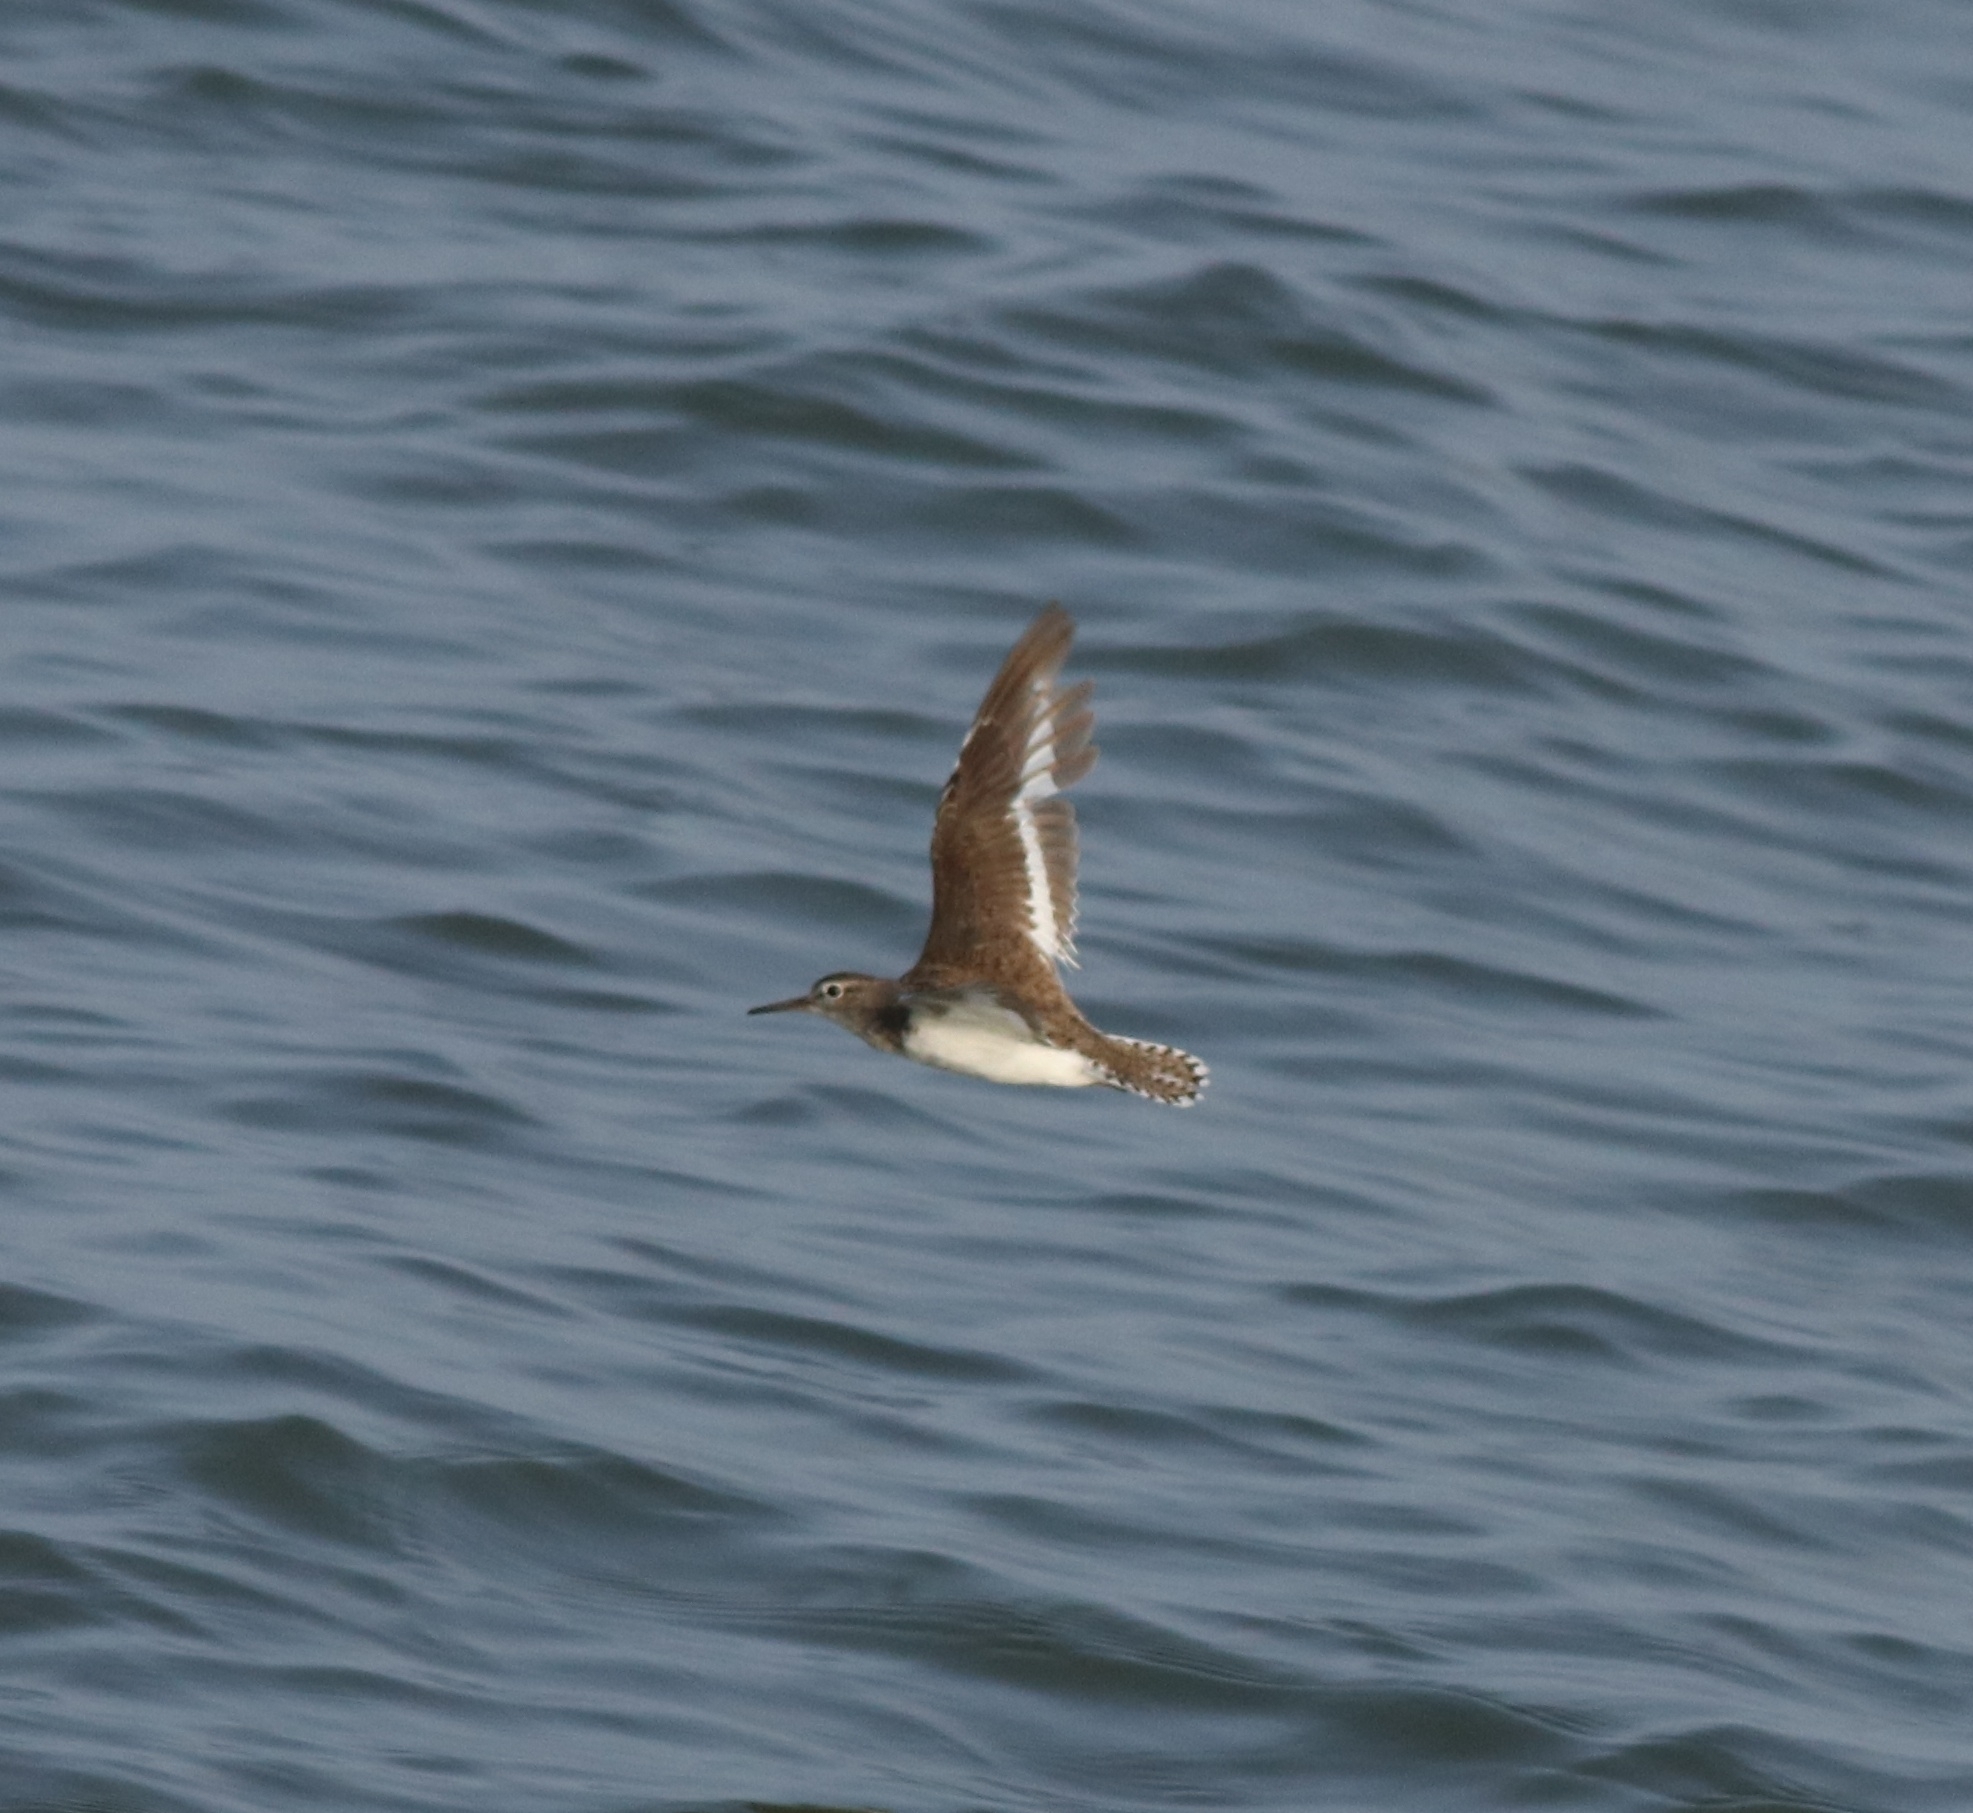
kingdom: Animalia
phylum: Chordata
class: Aves
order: Charadriiformes
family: Scolopacidae
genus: Actitis
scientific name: Actitis hypoleucos
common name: Common sandpiper
